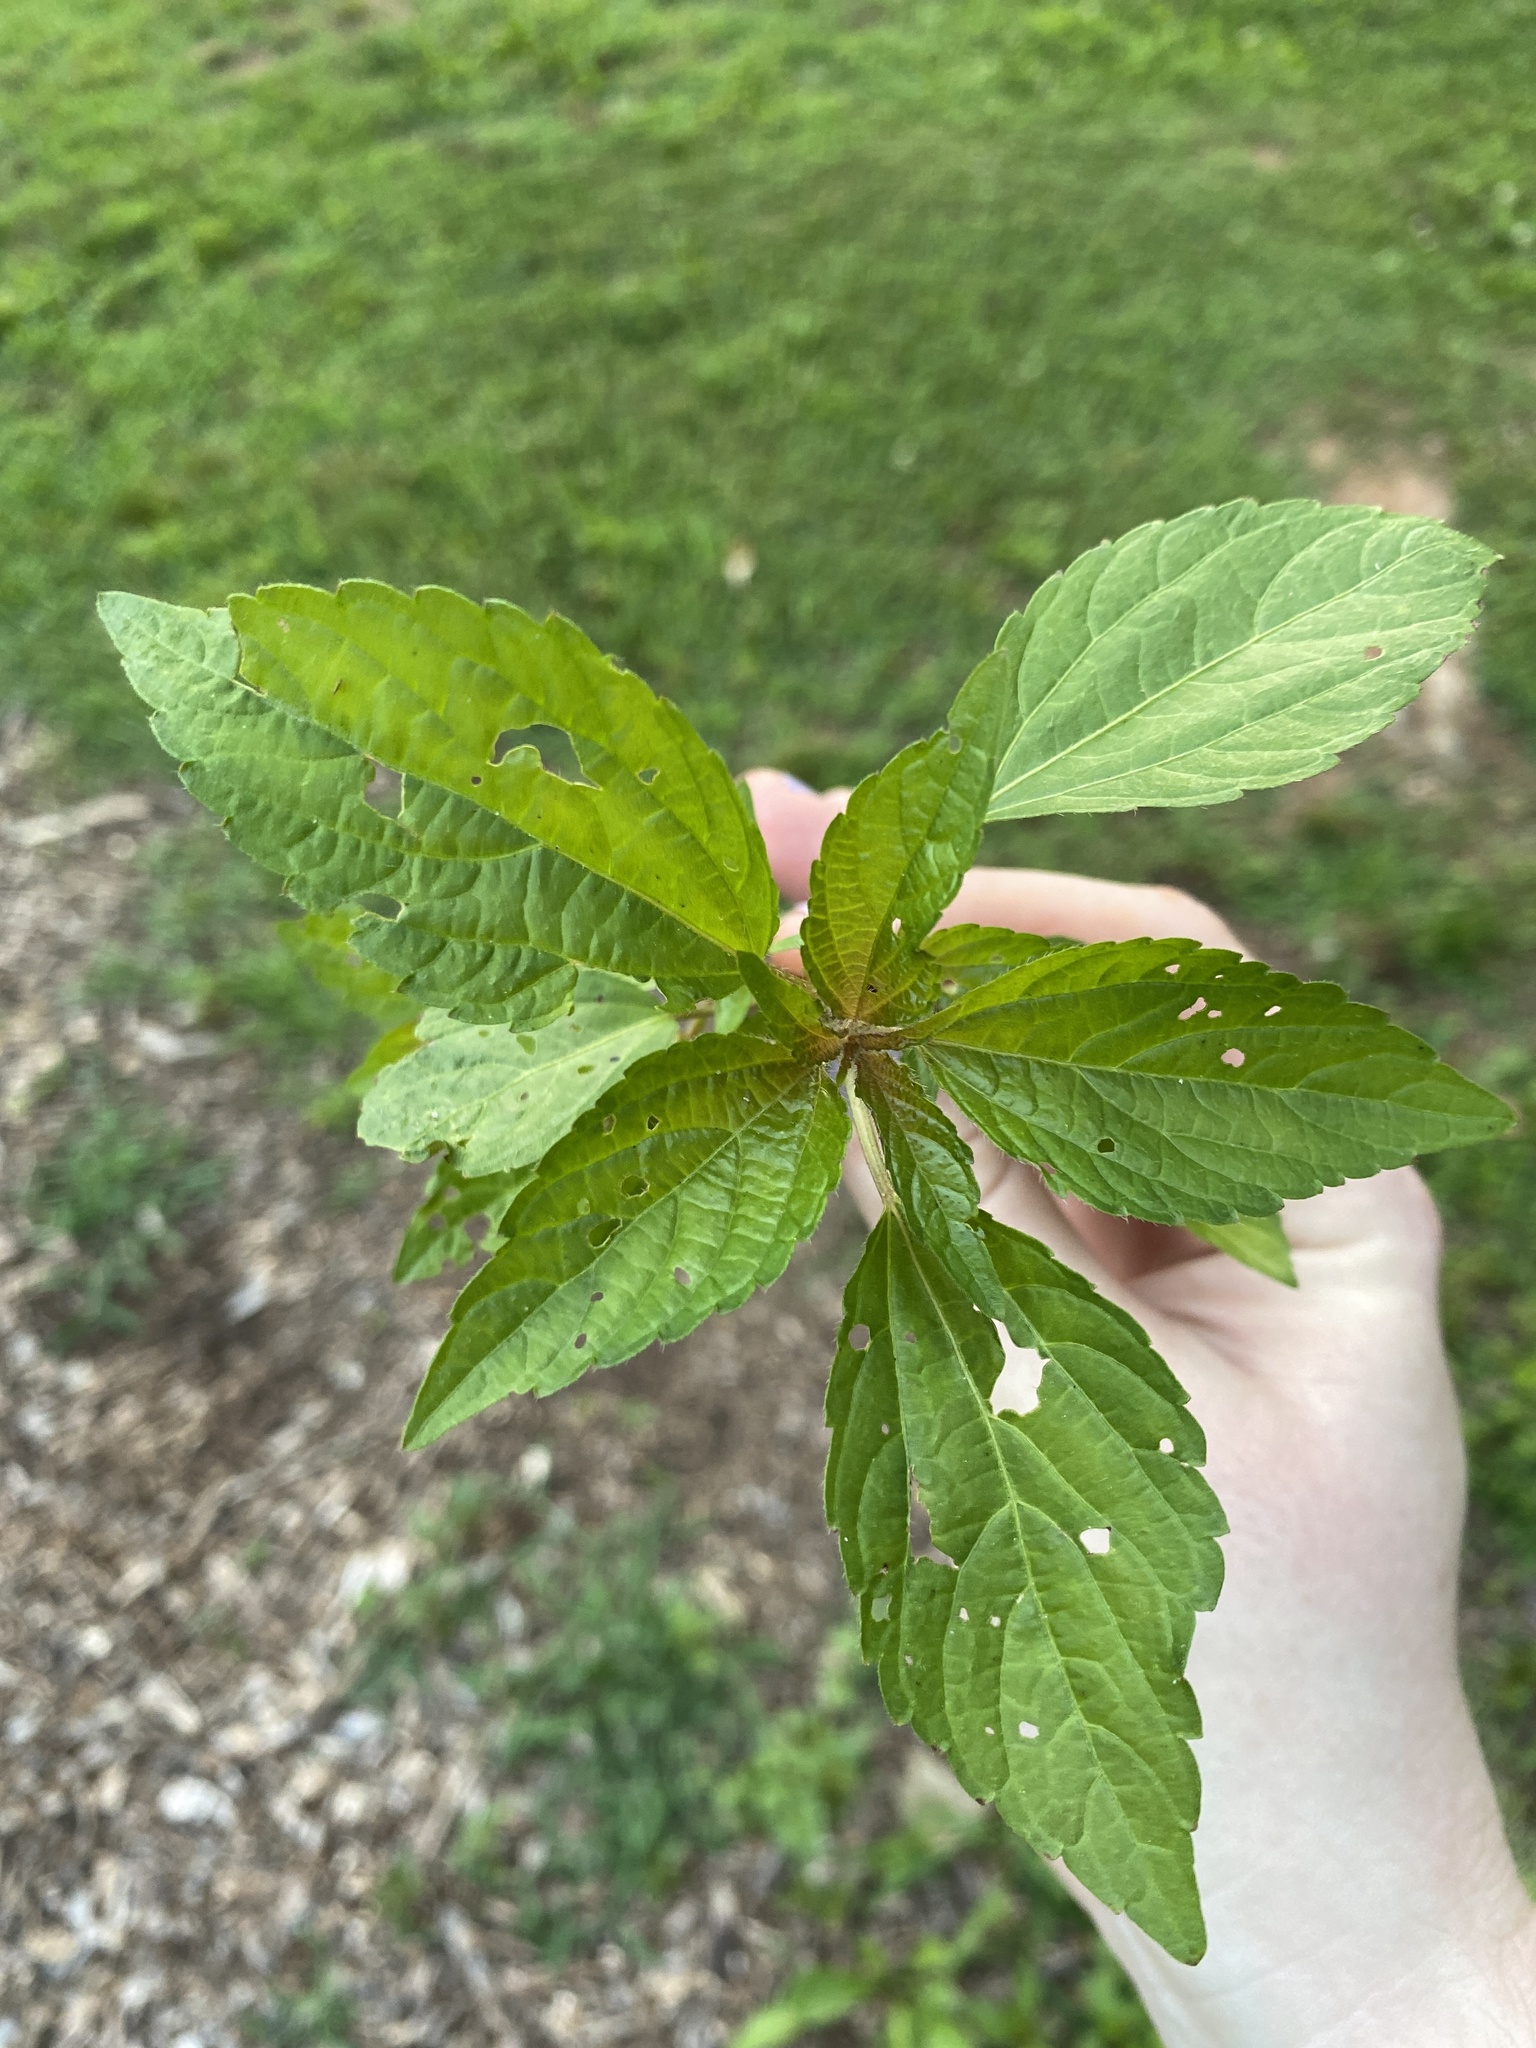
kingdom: Plantae
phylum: Tracheophyta
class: Magnoliopsida
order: Malpighiales
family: Euphorbiaceae
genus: Acalypha
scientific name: Acalypha rhomboidea
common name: Rhombic copperleaf
